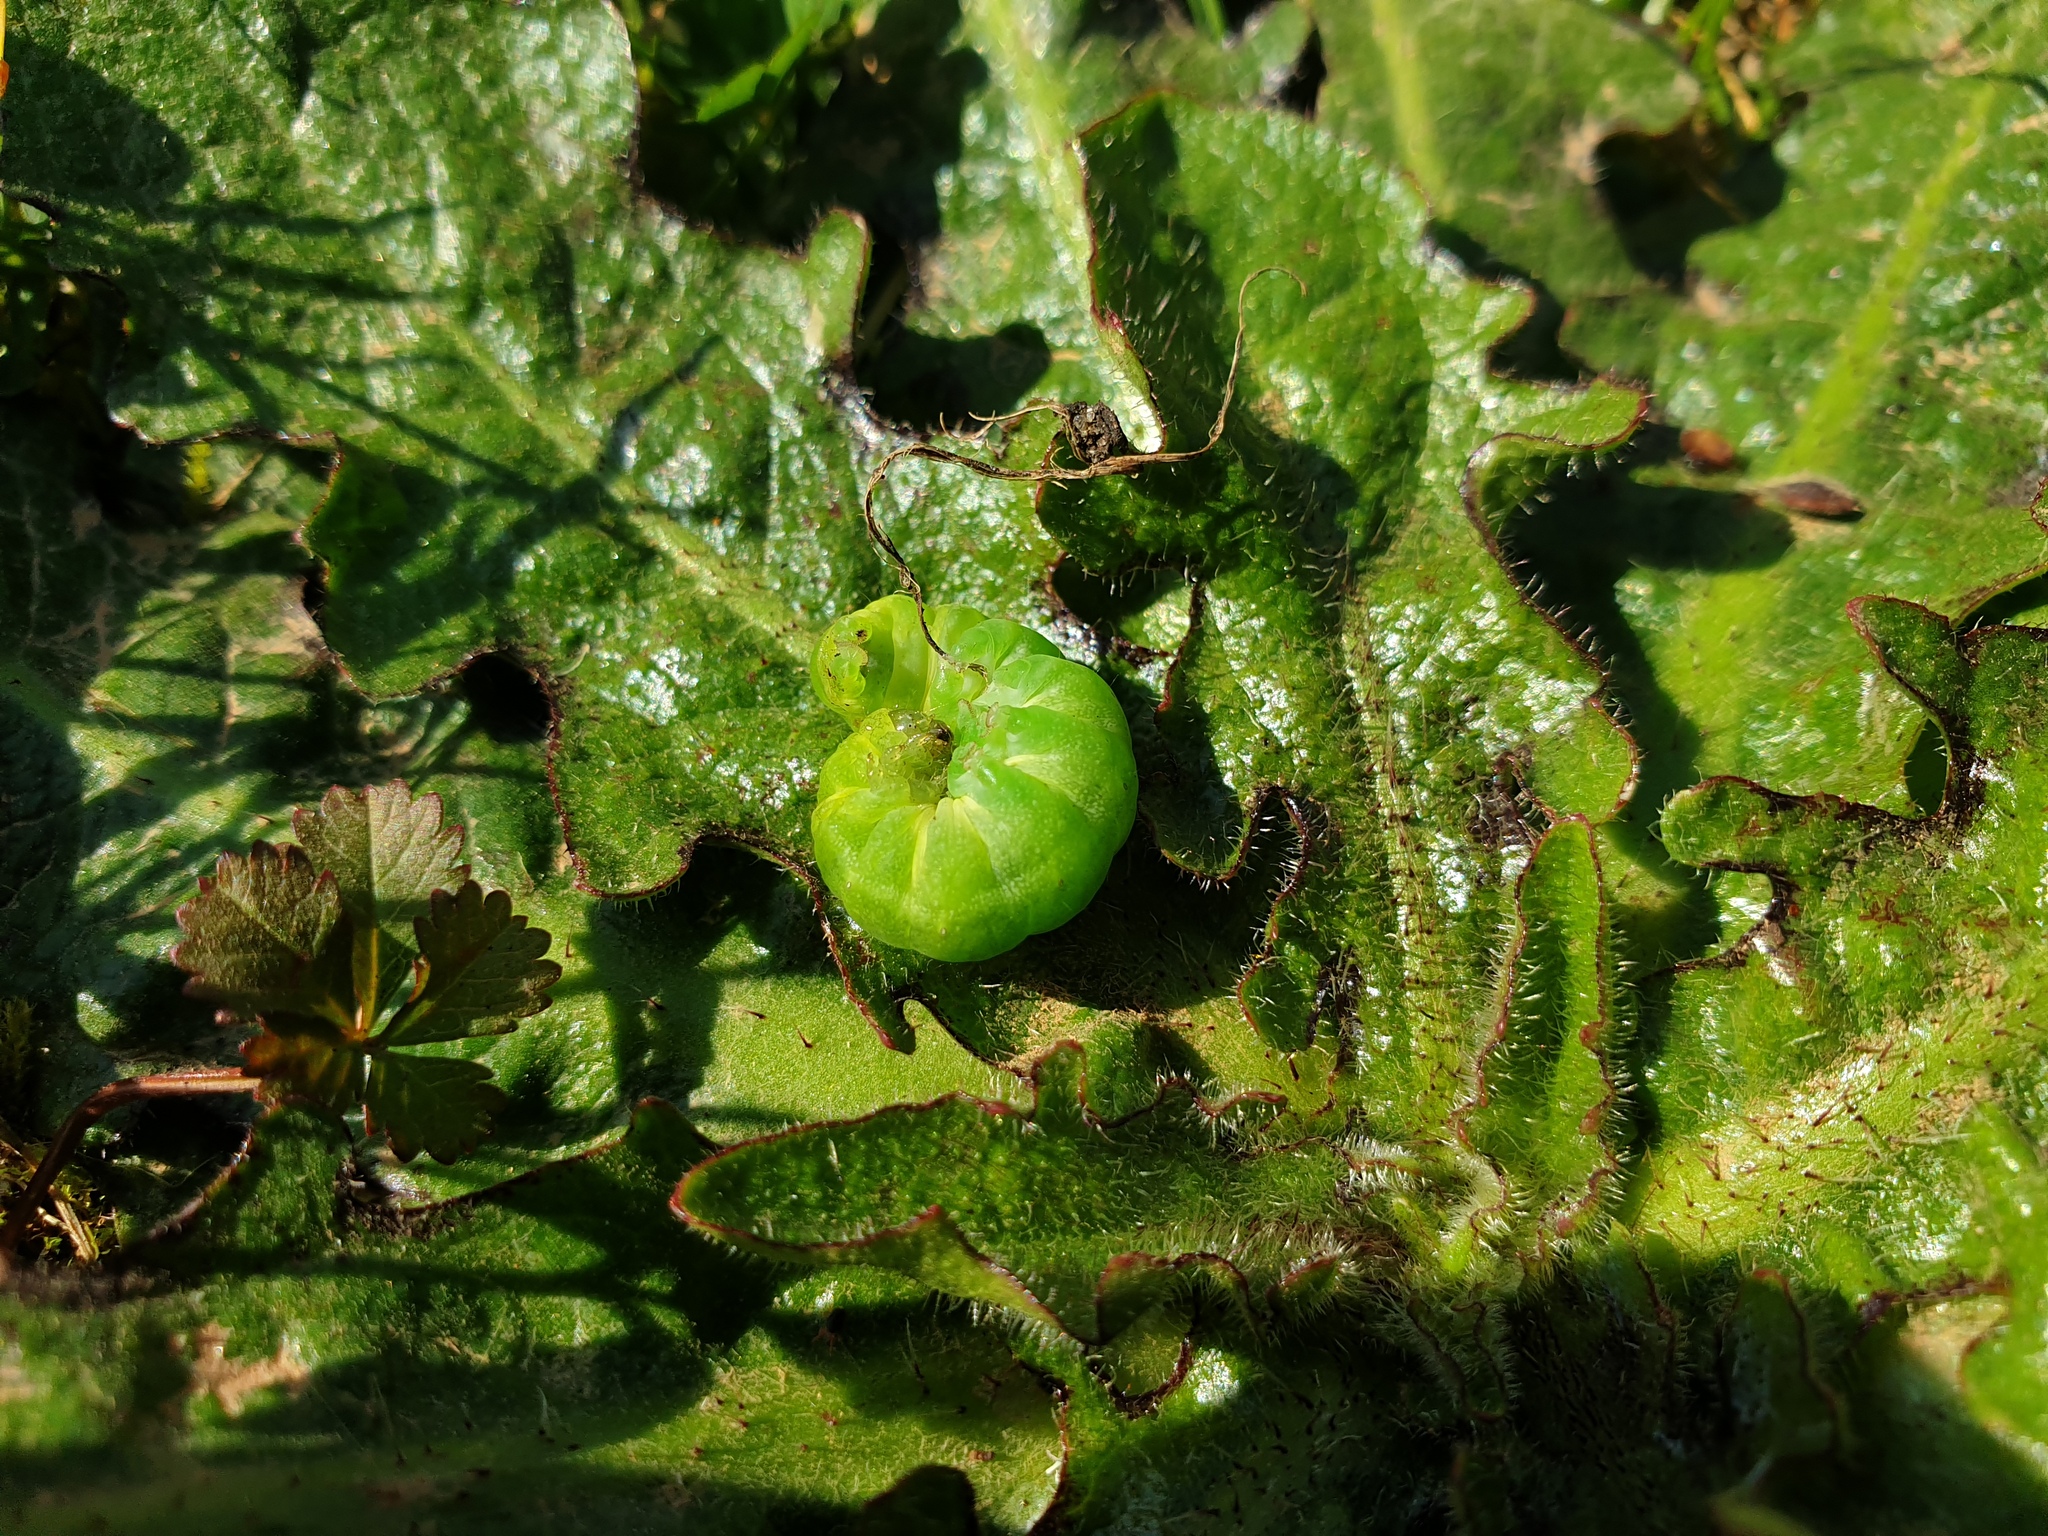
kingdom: Animalia
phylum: Arthropoda
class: Insecta
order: Lepidoptera
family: Noctuidae
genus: Phlogophora
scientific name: Phlogophora meticulosa
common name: Angle shades
